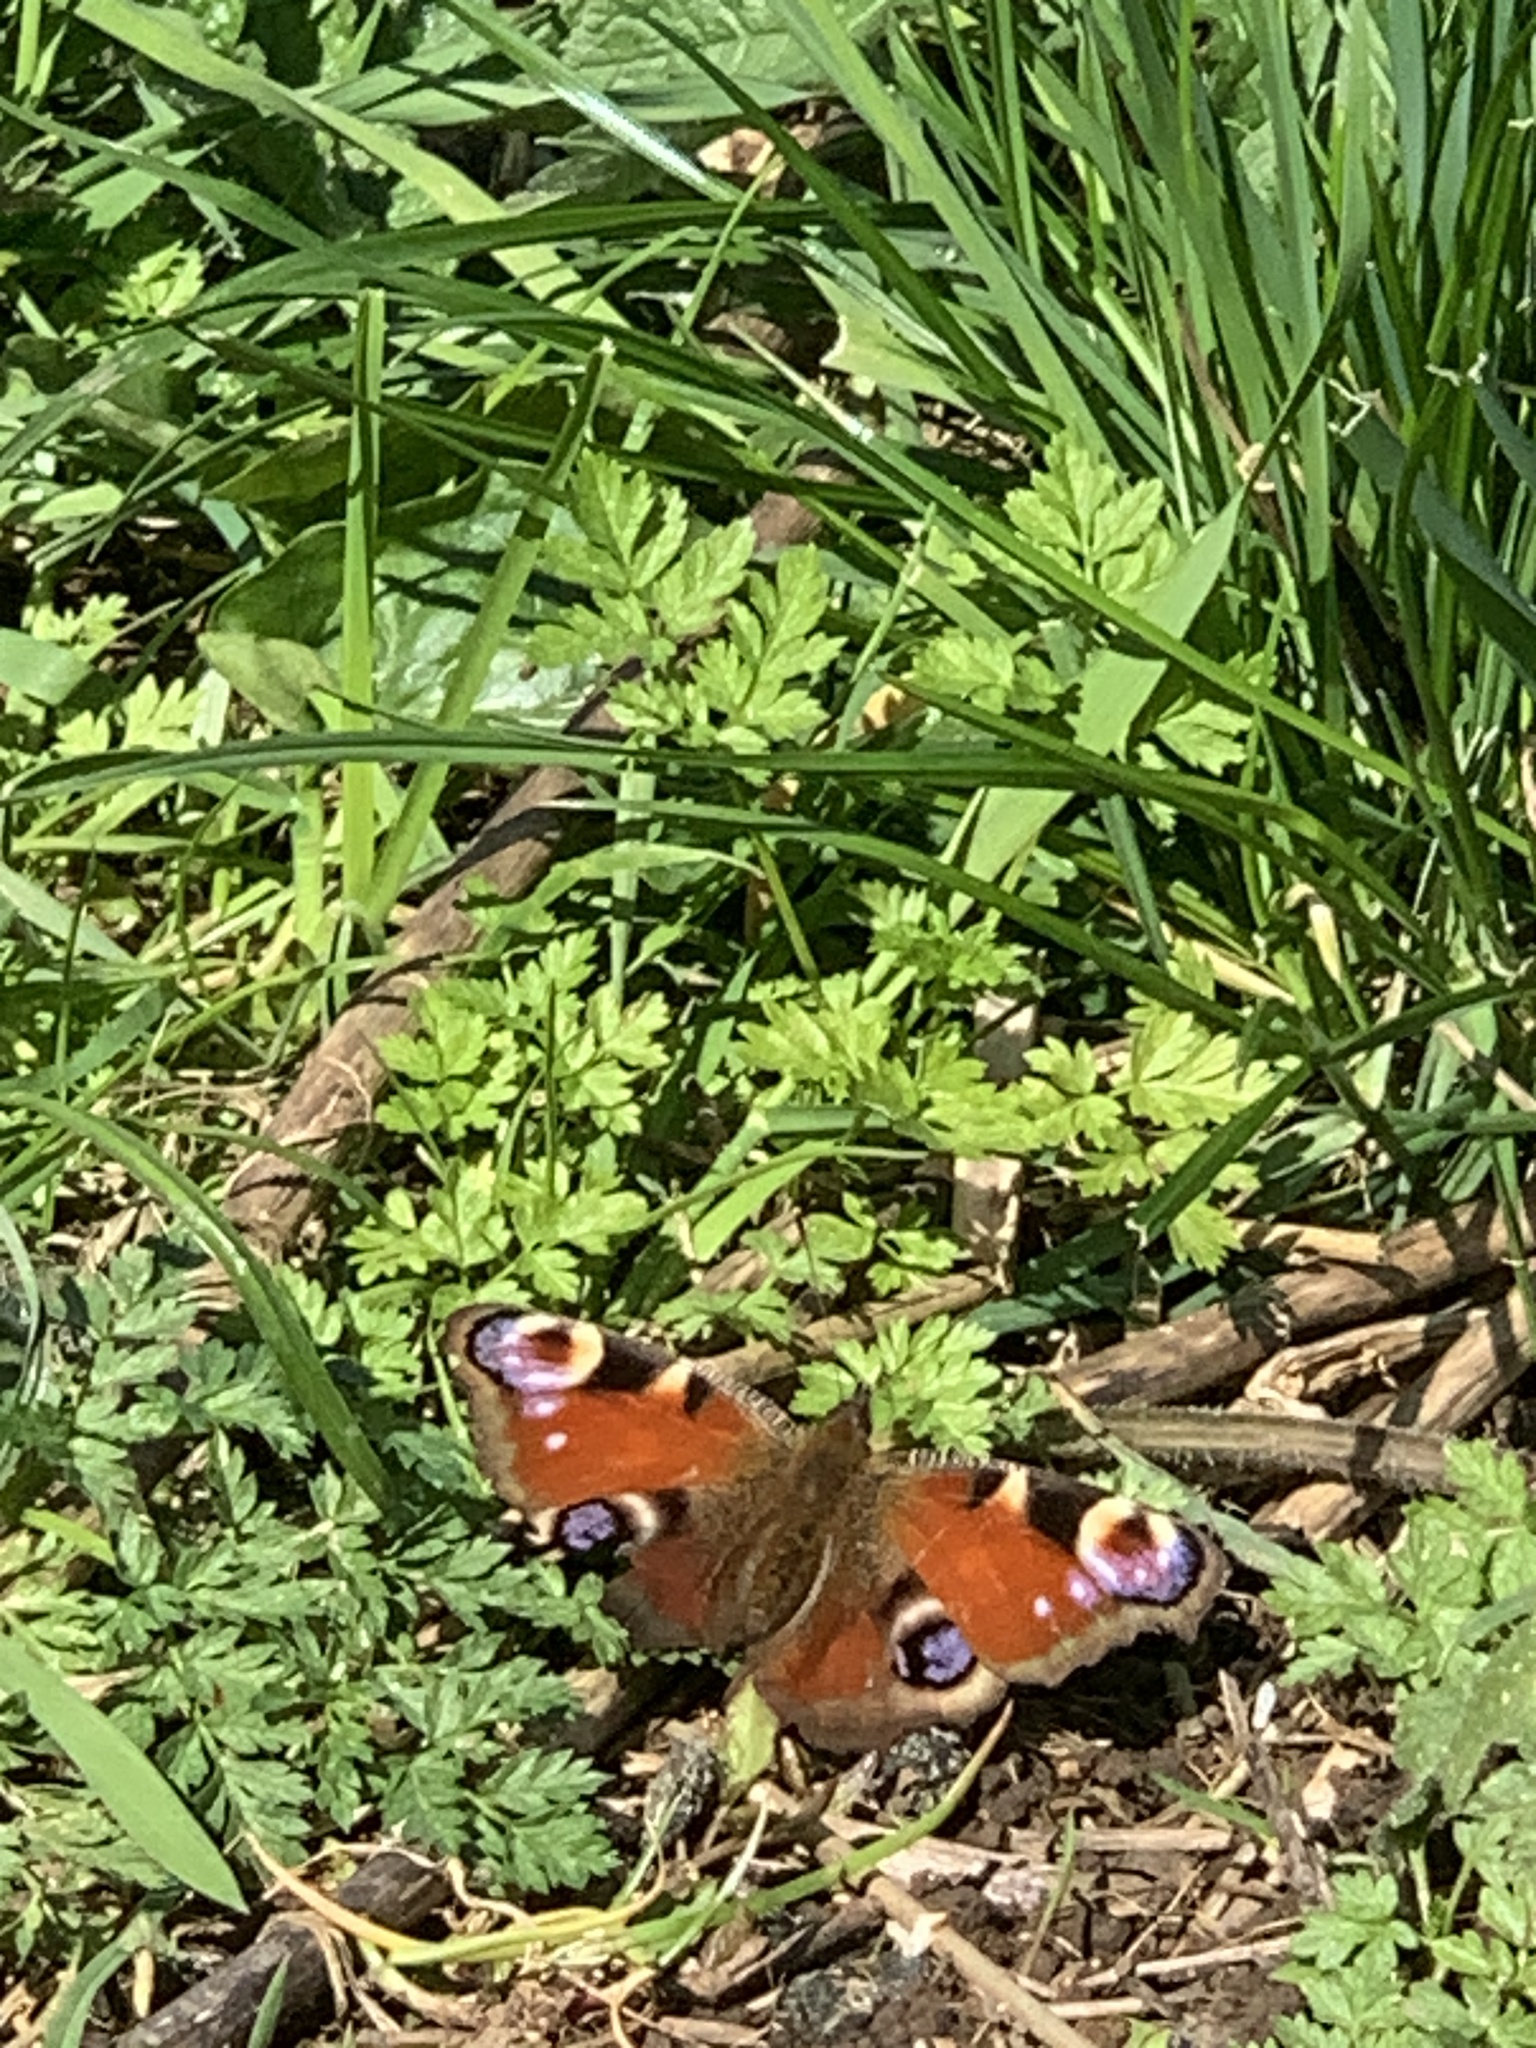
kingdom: Animalia
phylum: Arthropoda
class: Insecta
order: Lepidoptera
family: Nymphalidae
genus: Aglais
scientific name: Aglais io
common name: Peacock
